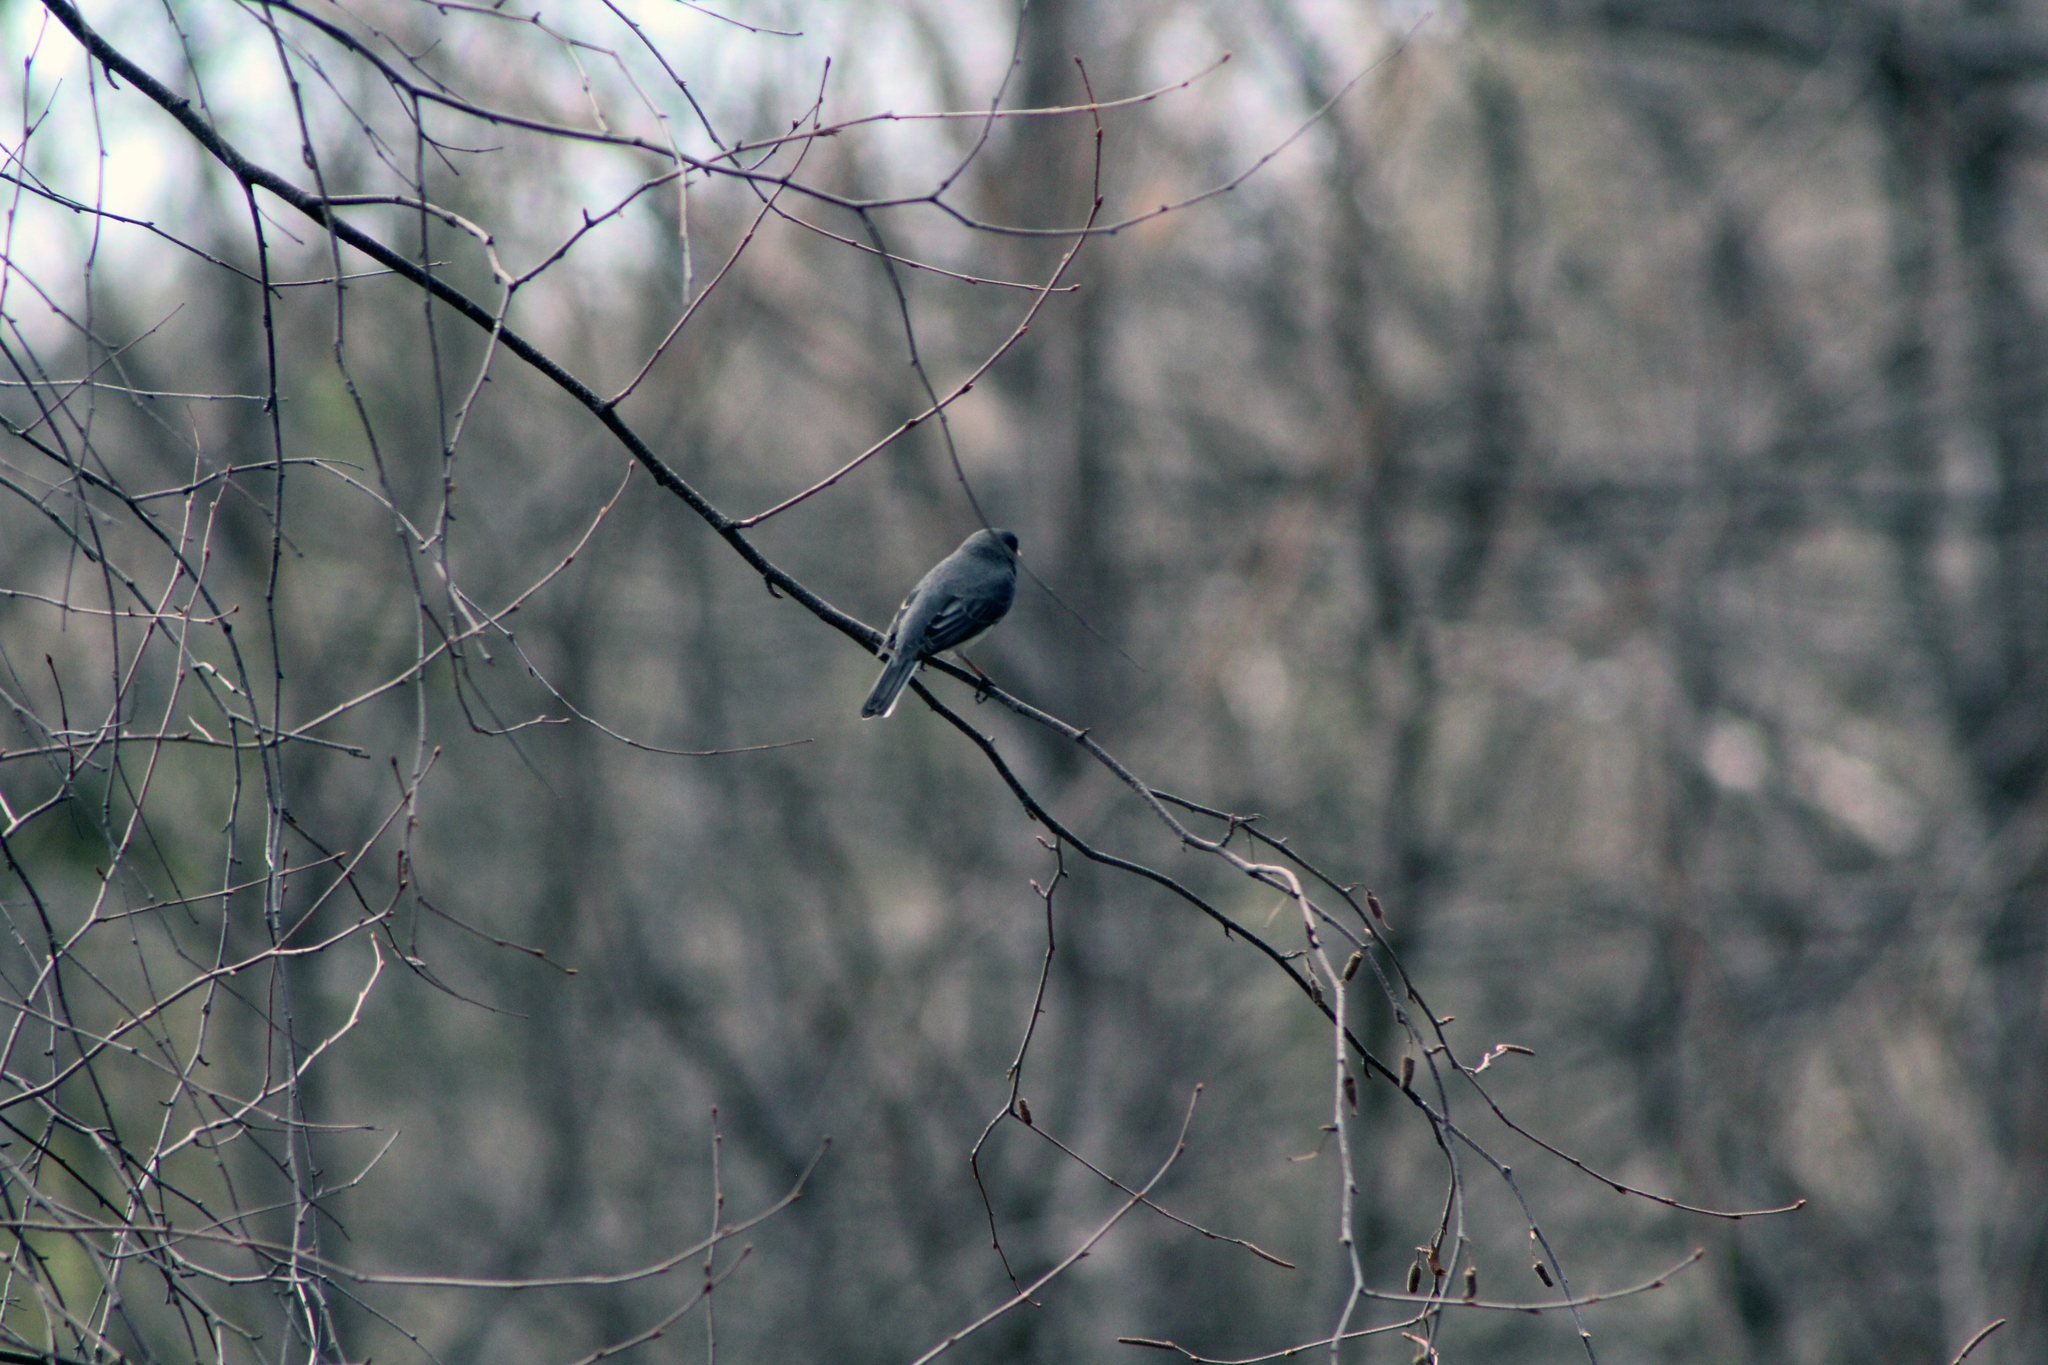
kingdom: Animalia
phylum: Chordata
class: Aves
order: Passeriformes
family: Passerellidae
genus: Junco
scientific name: Junco hyemalis
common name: Dark-eyed junco
